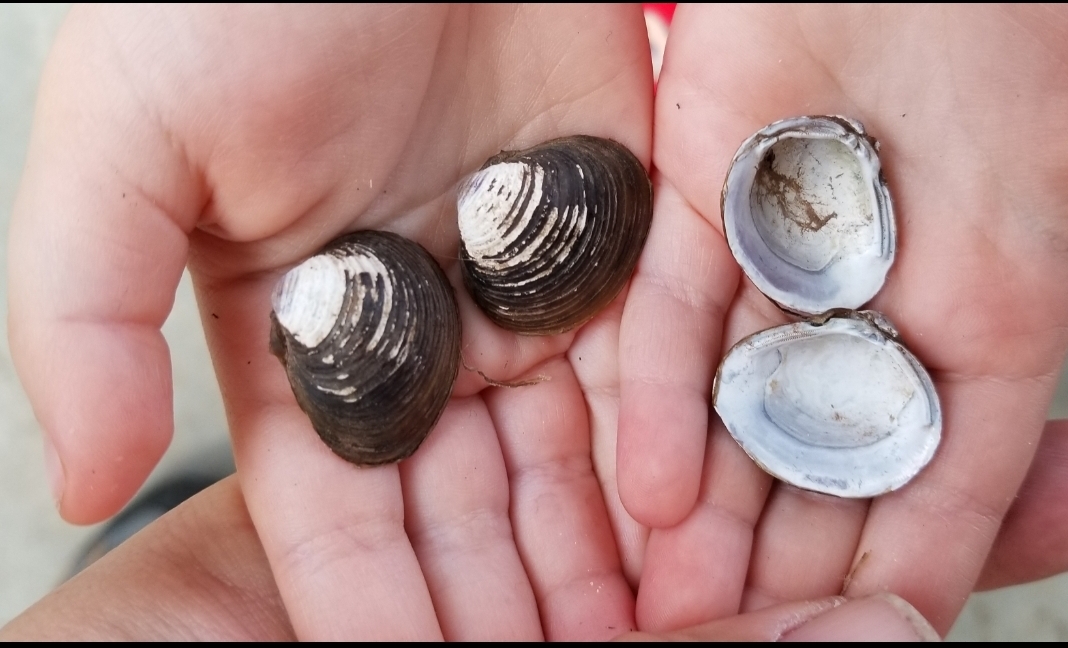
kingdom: Animalia
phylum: Mollusca
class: Bivalvia
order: Venerida
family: Cyrenidae
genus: Corbicula
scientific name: Corbicula fluminea
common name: Asian clam
